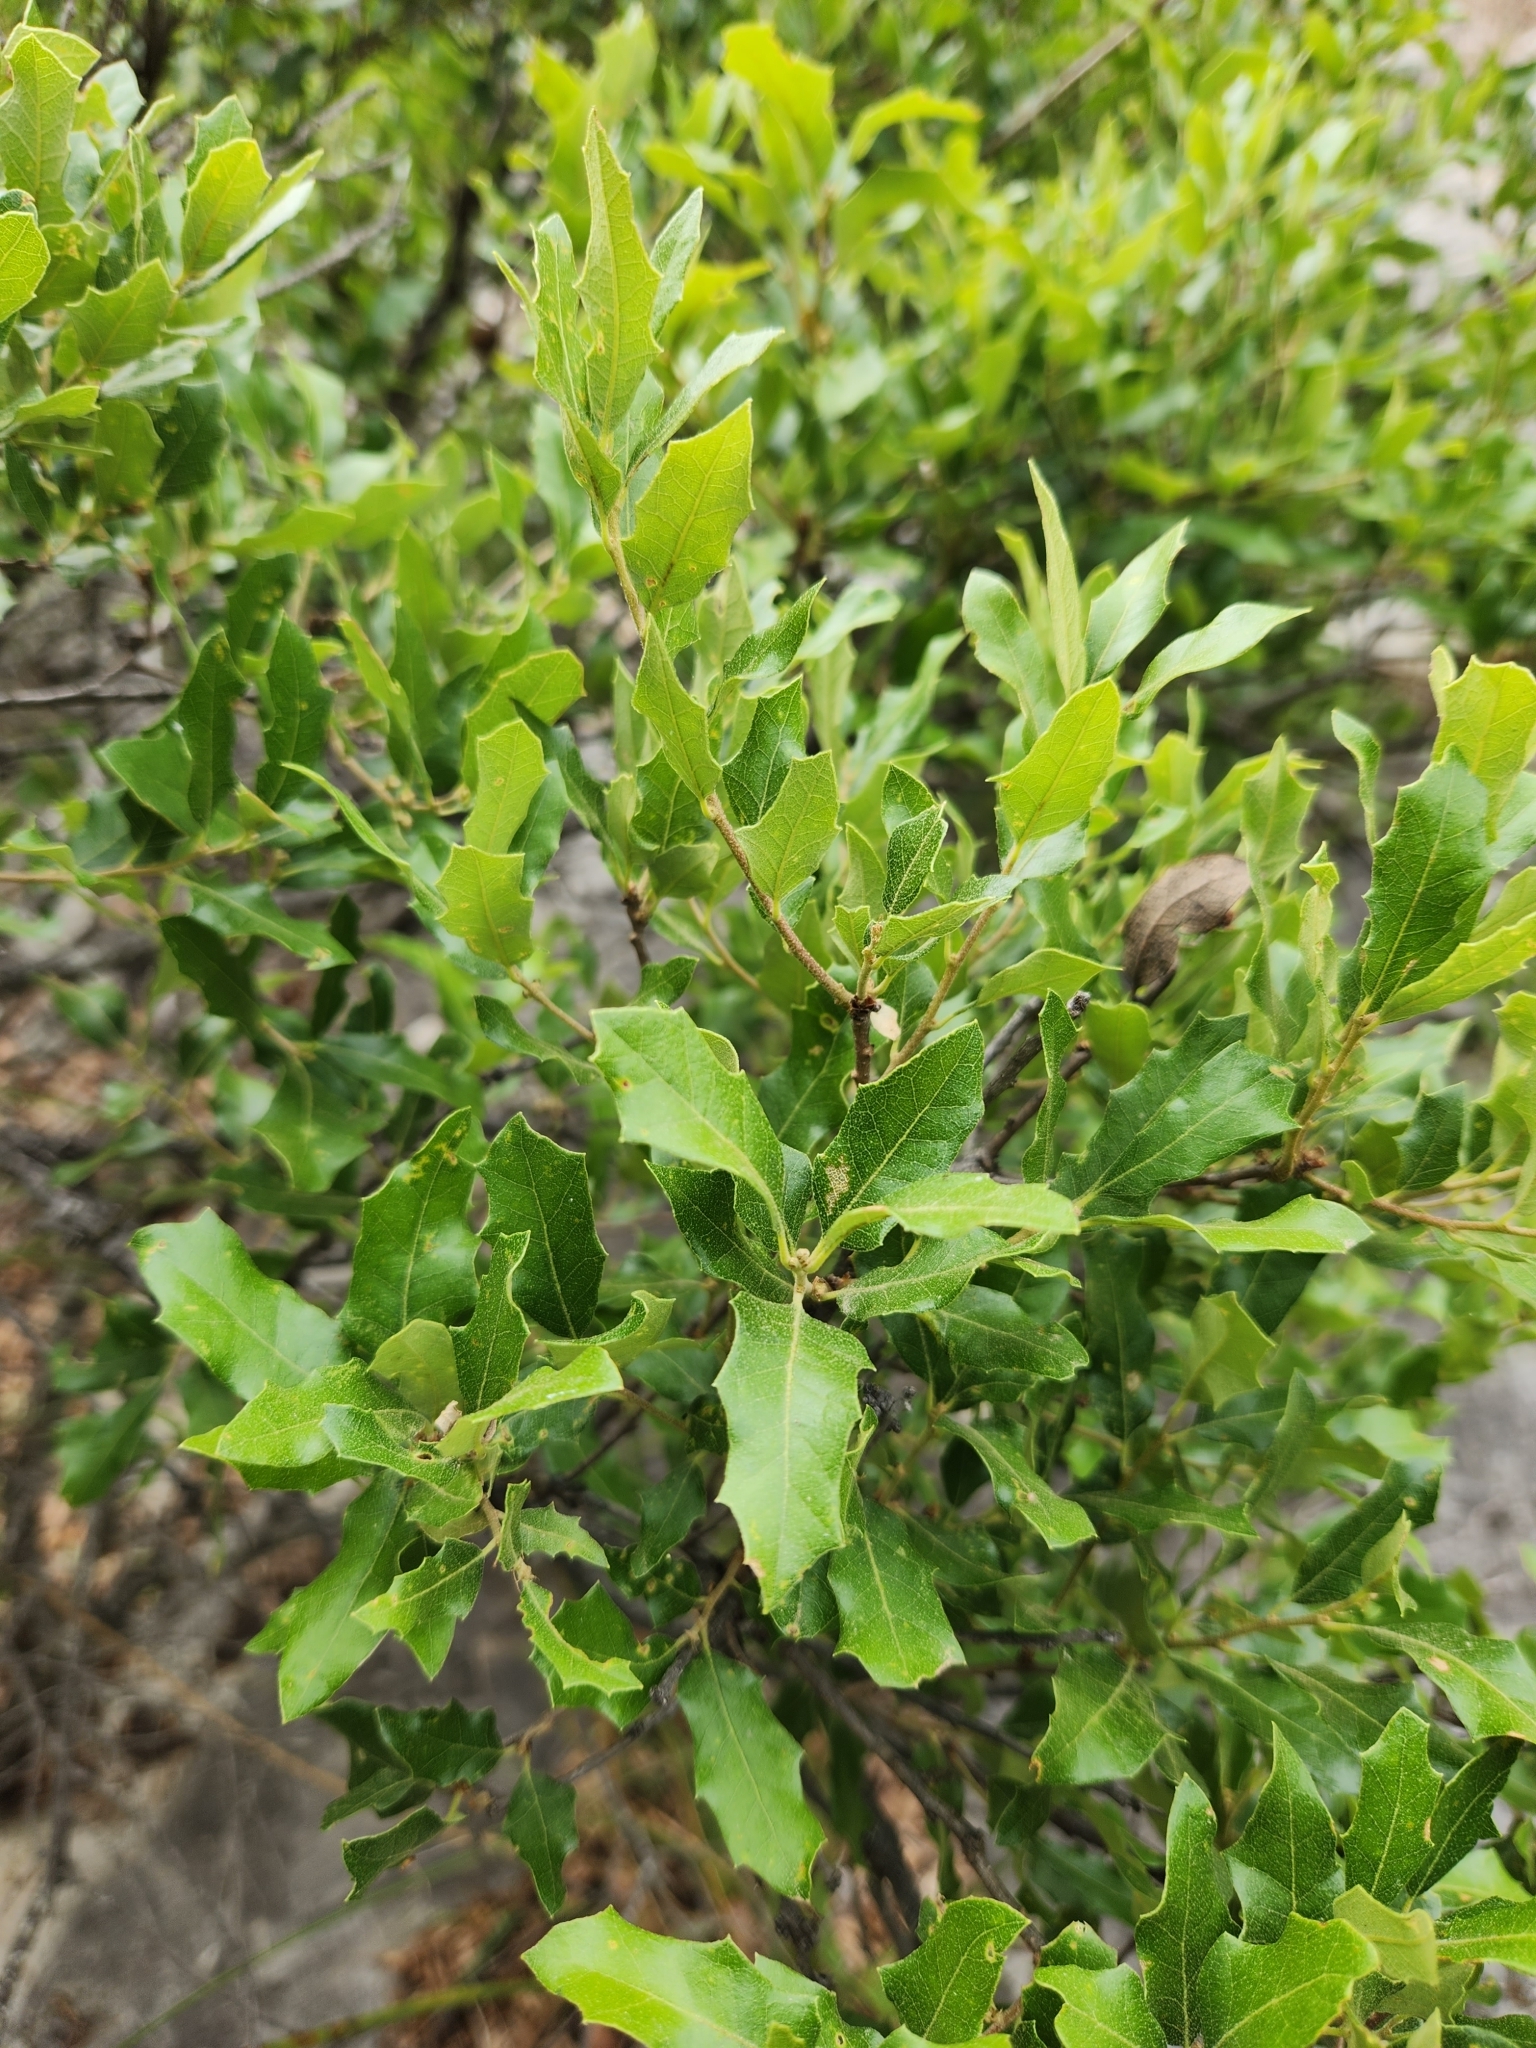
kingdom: Plantae
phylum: Tracheophyta
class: Magnoliopsida
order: Fagales
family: Fagaceae
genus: Quercus
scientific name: Quercus vaseyana
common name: Sandpaper oak
